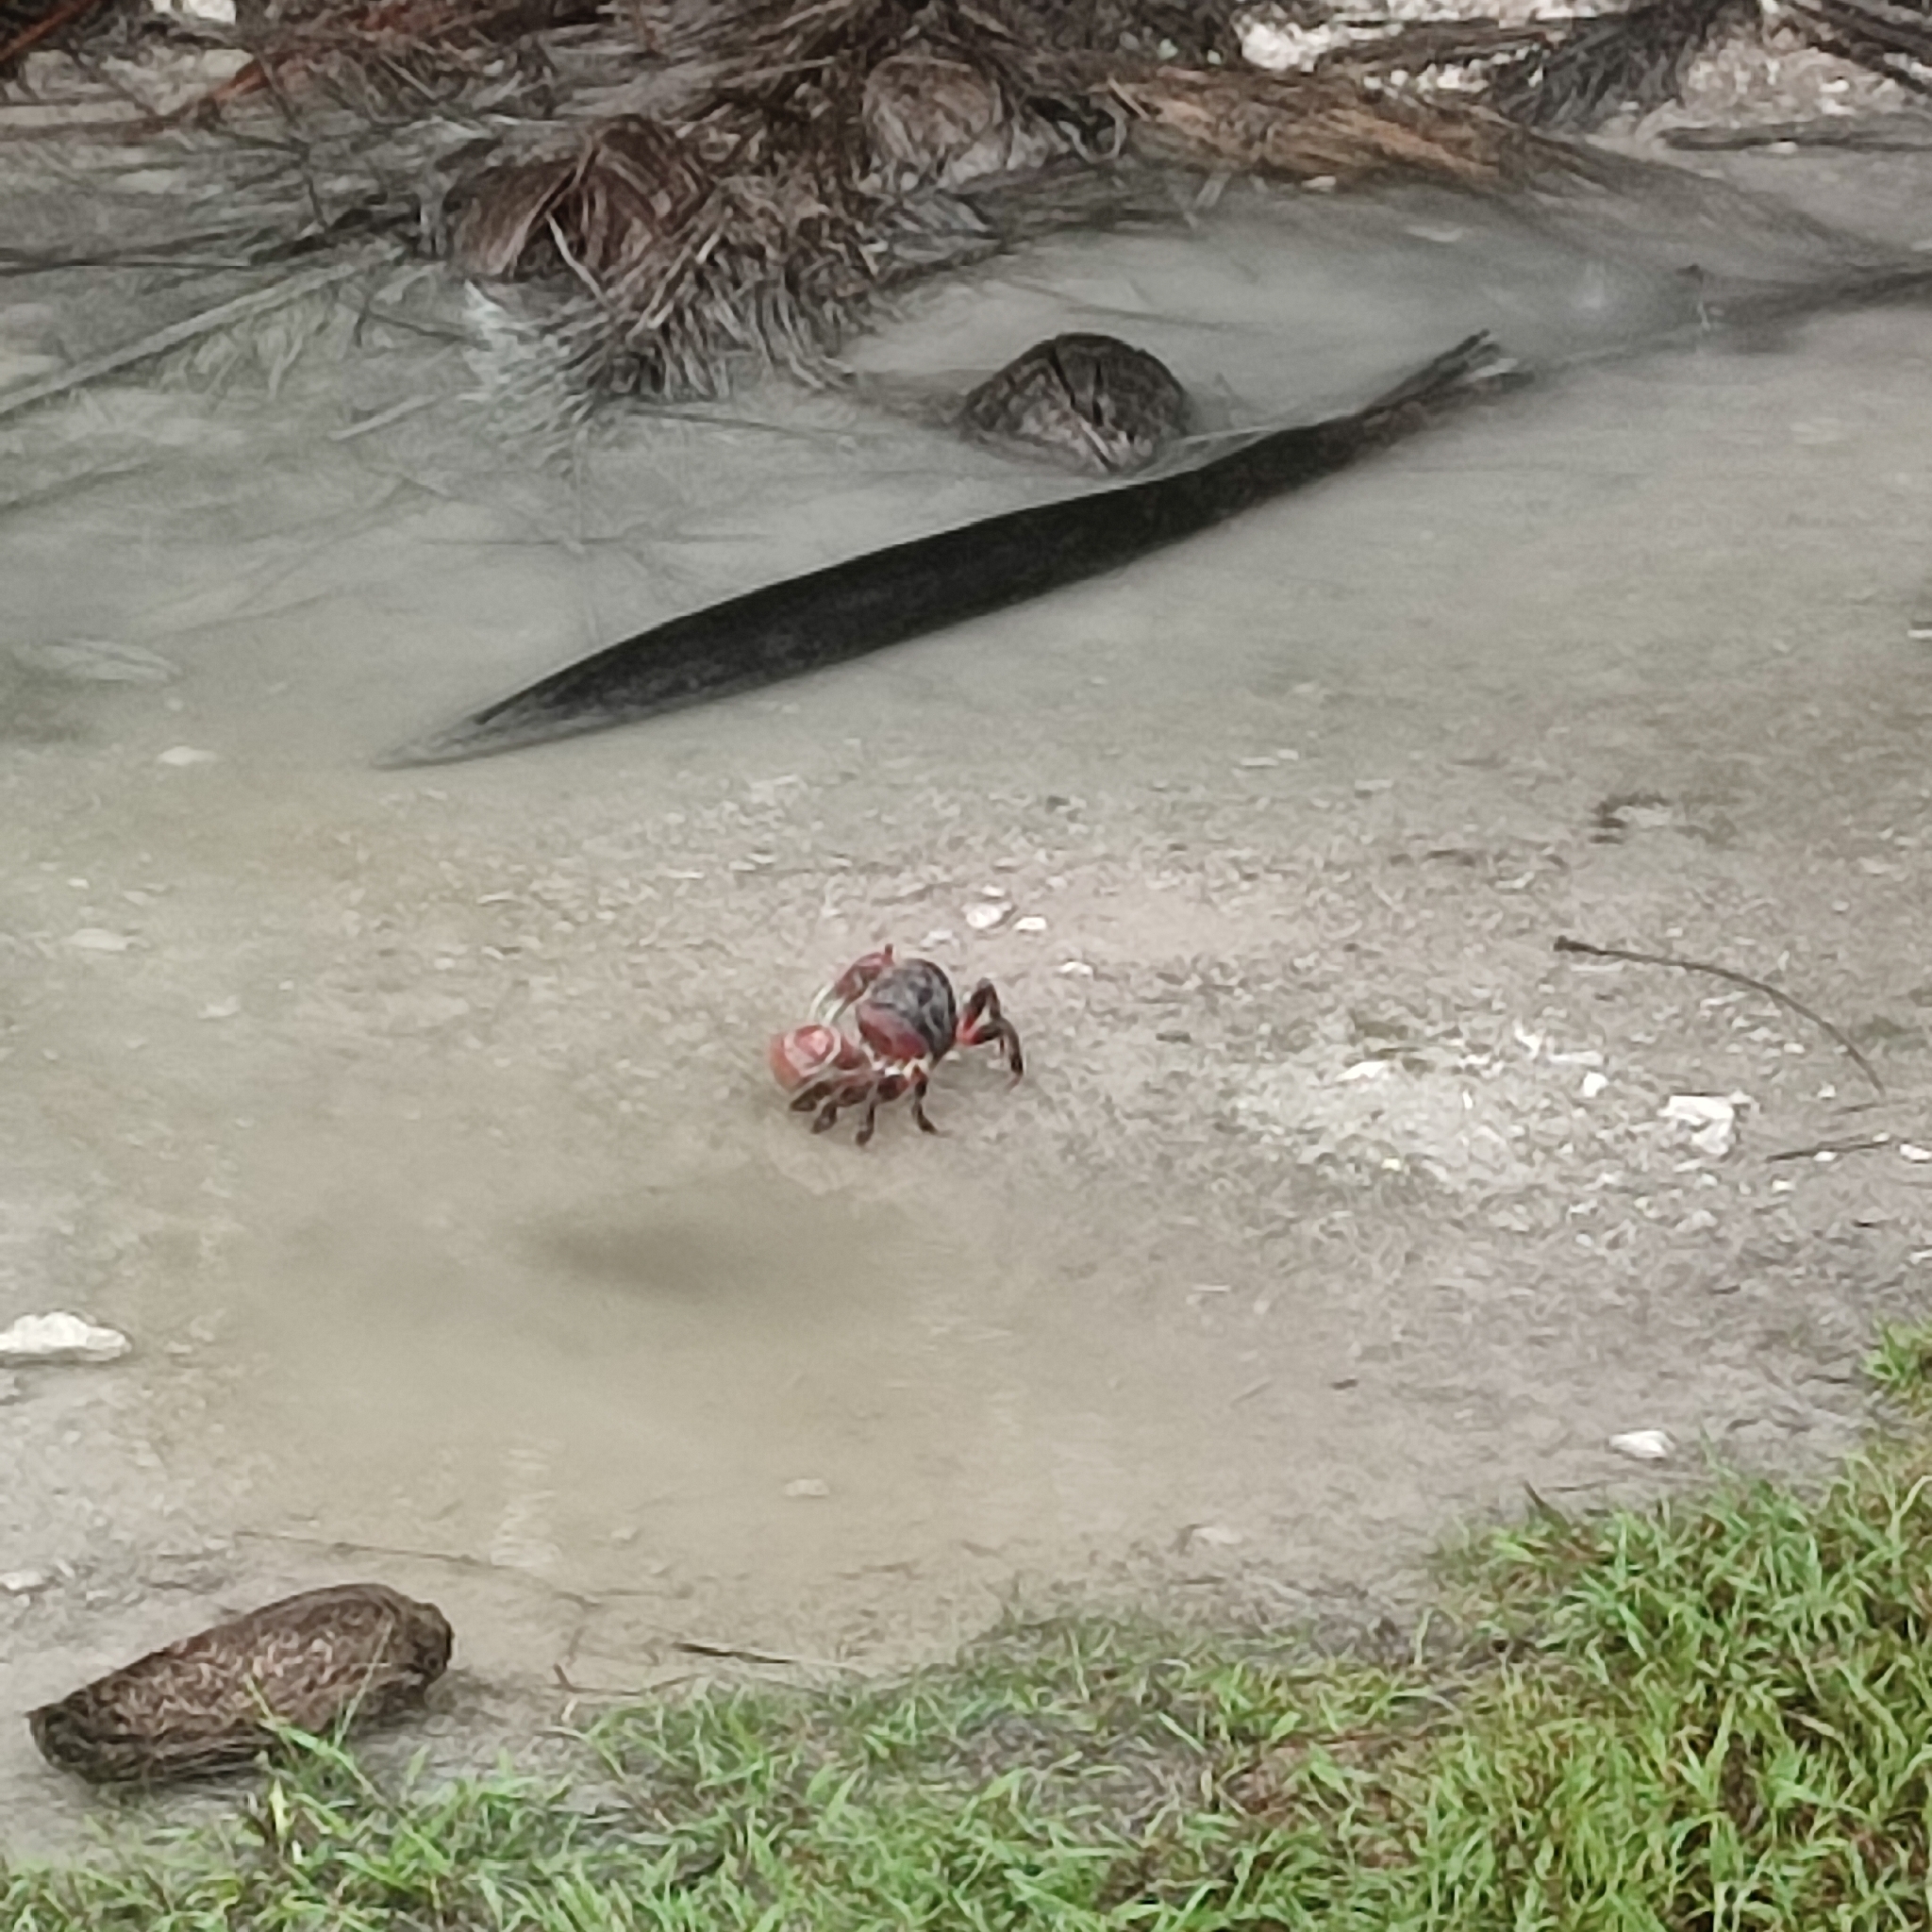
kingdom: Animalia
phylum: Arthropoda
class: Malacostraca
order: Decapoda
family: Gecarcinidae
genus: Cardisoma
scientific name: Cardisoma carnifex
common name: Brown land crab
